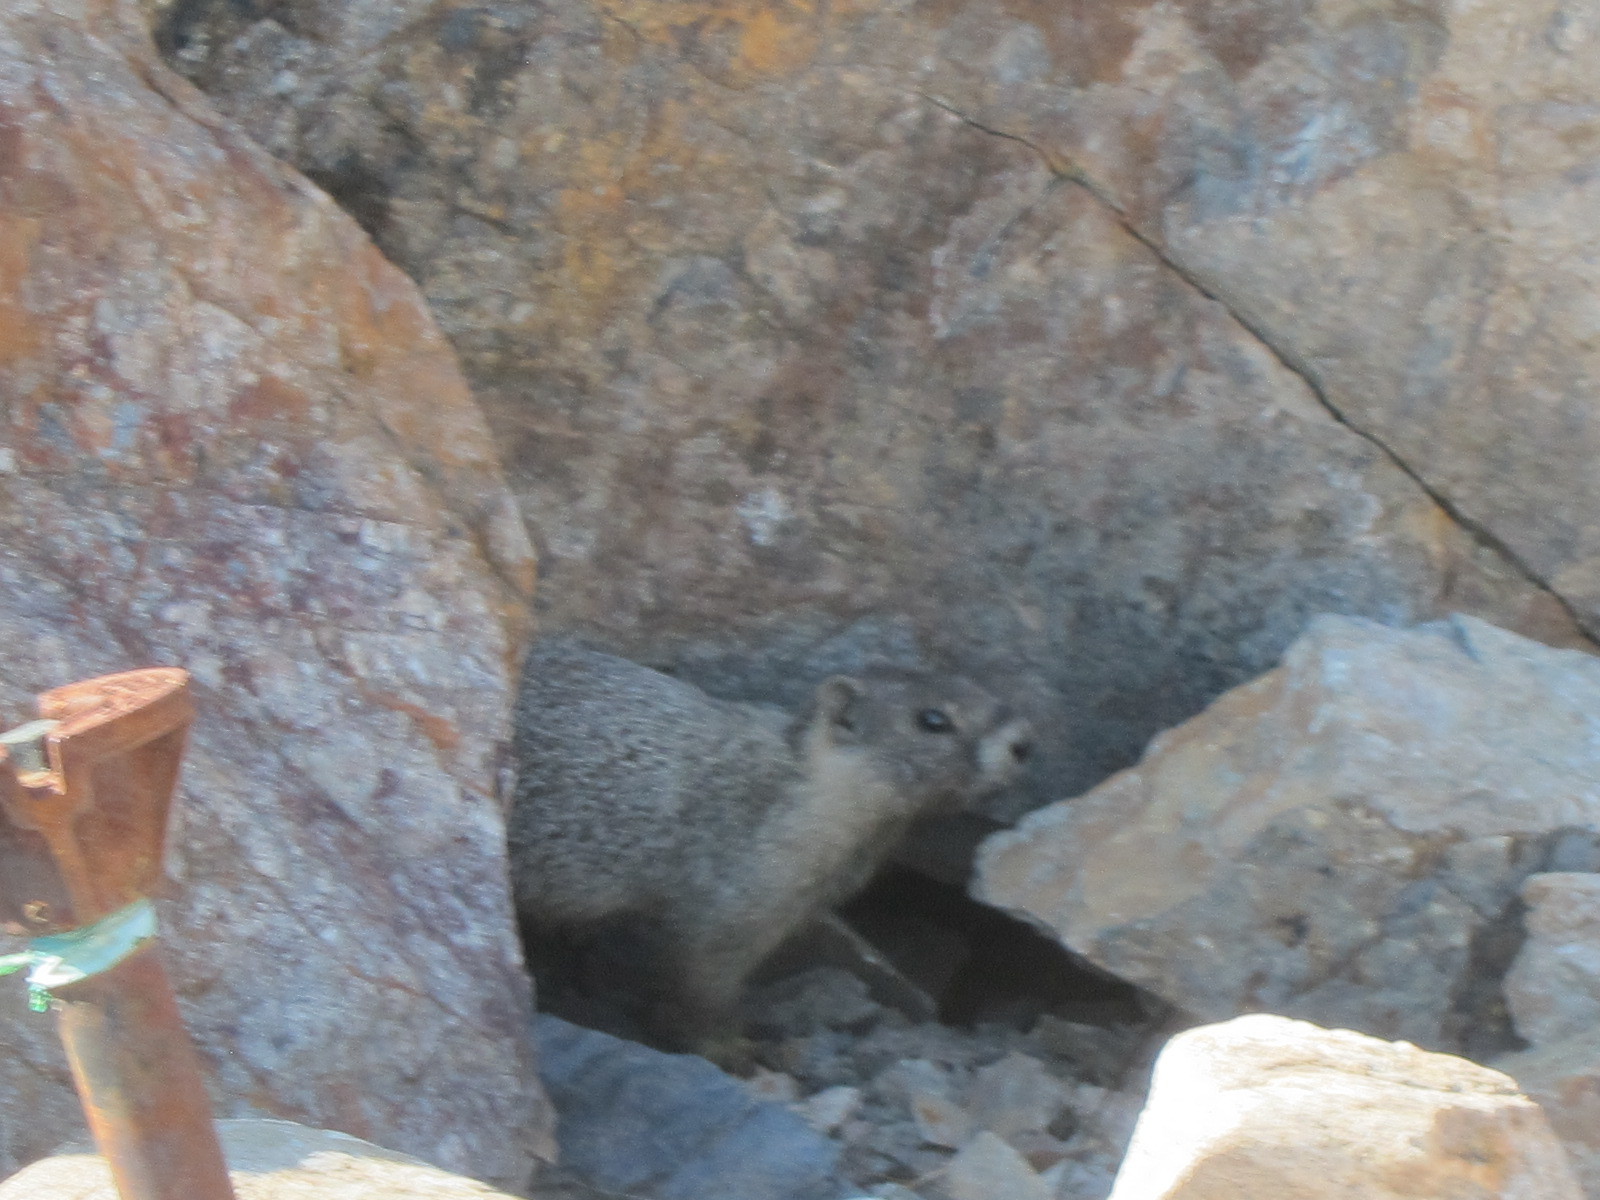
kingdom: Animalia
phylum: Chordata
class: Mammalia
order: Rodentia
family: Sciuridae
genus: Marmota
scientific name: Marmota flaviventris
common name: Yellow-bellied marmot
